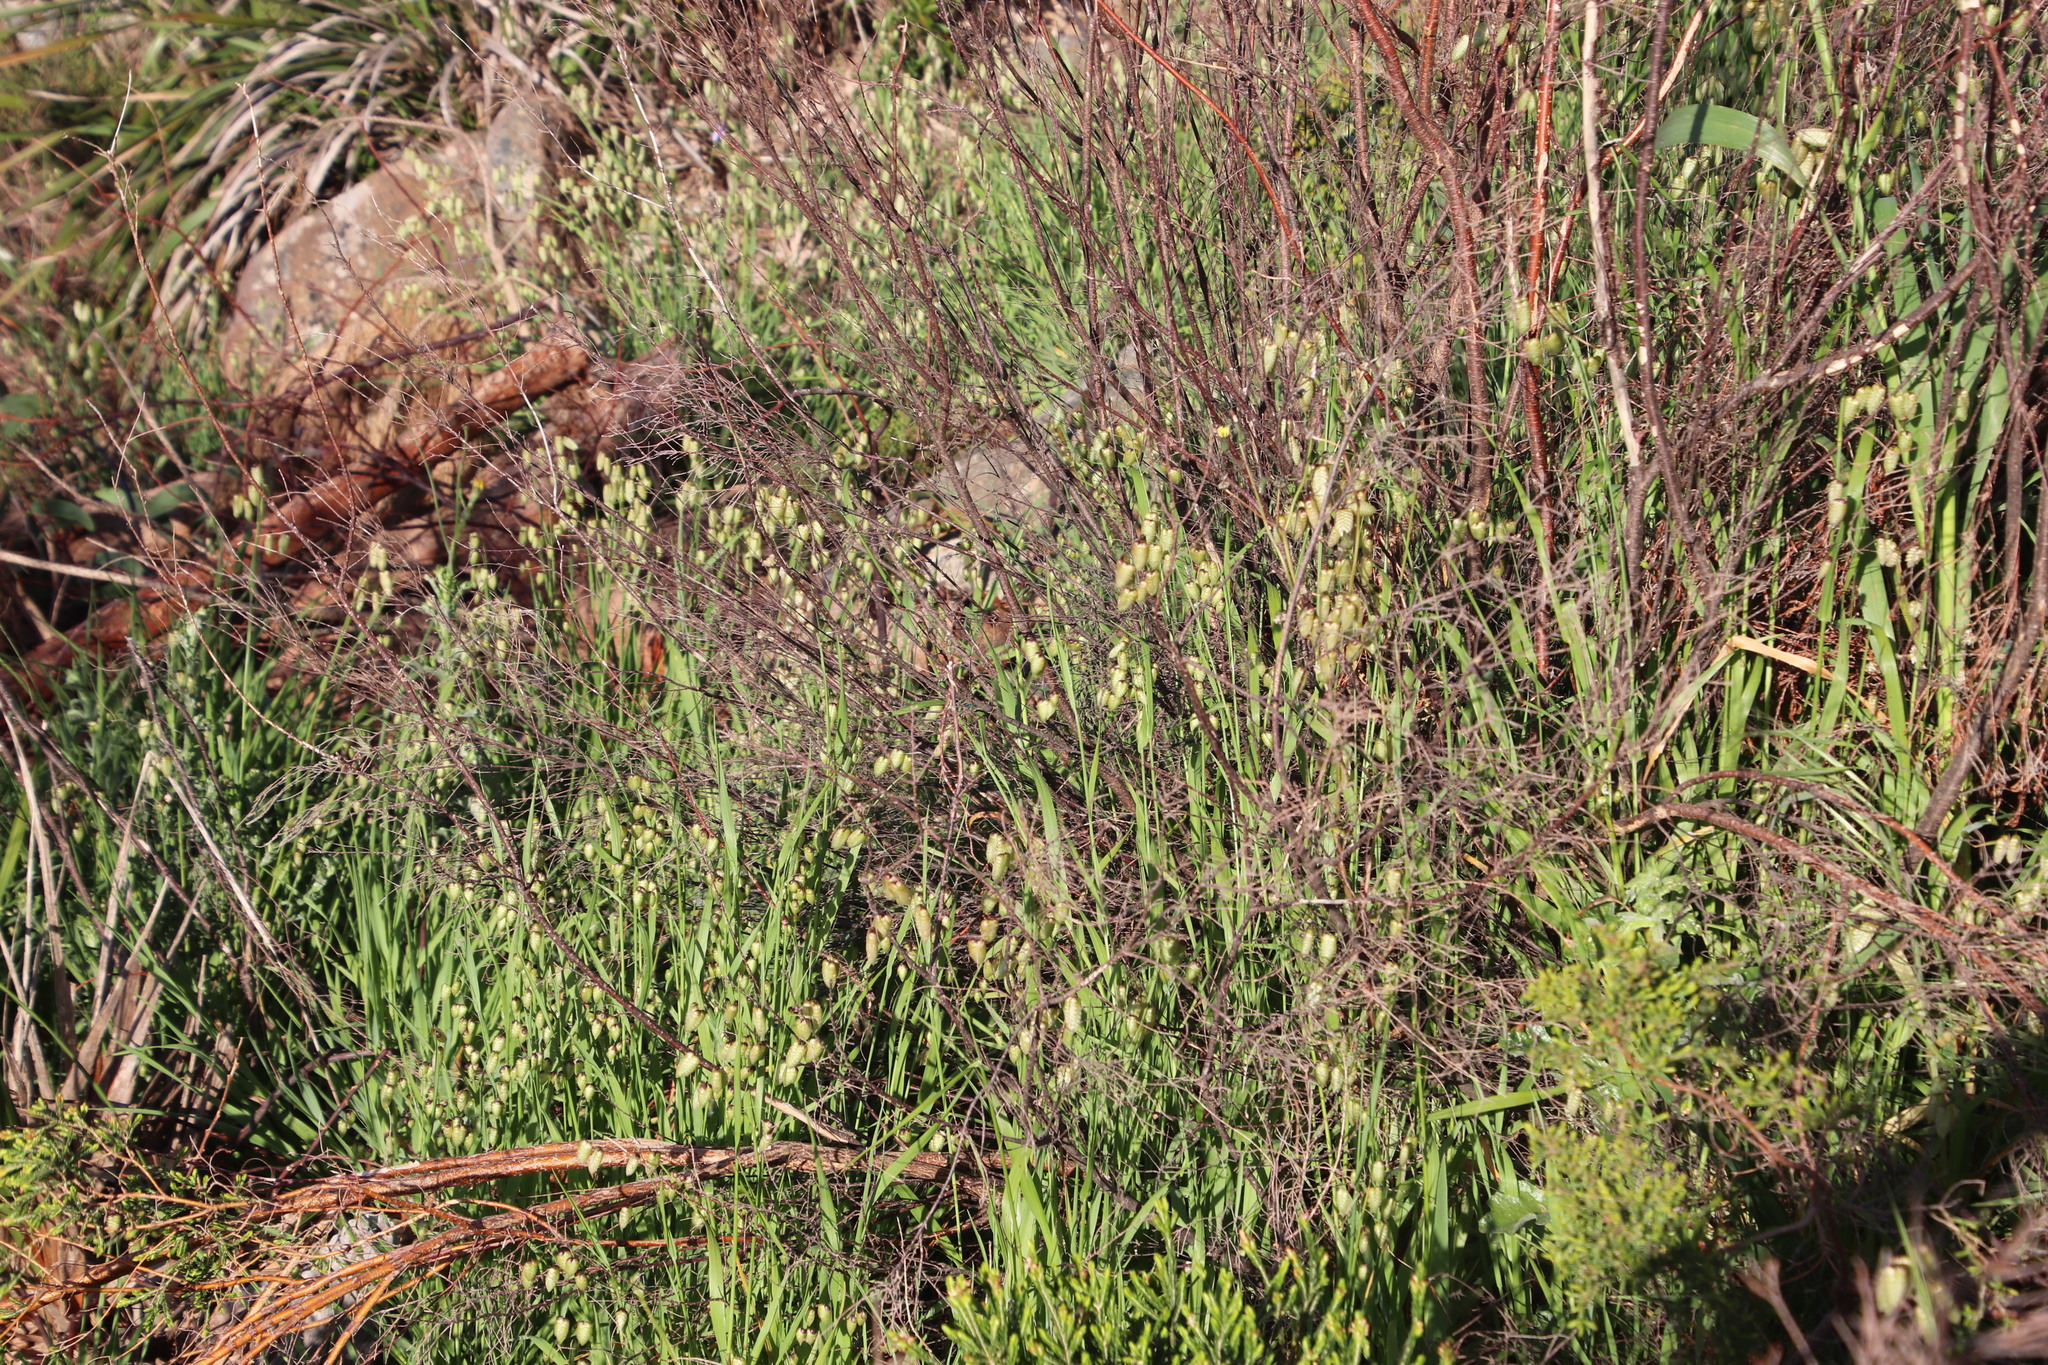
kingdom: Plantae
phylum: Tracheophyta
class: Liliopsida
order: Poales
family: Poaceae
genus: Briza
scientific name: Briza maxima
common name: Big quakinggrass
